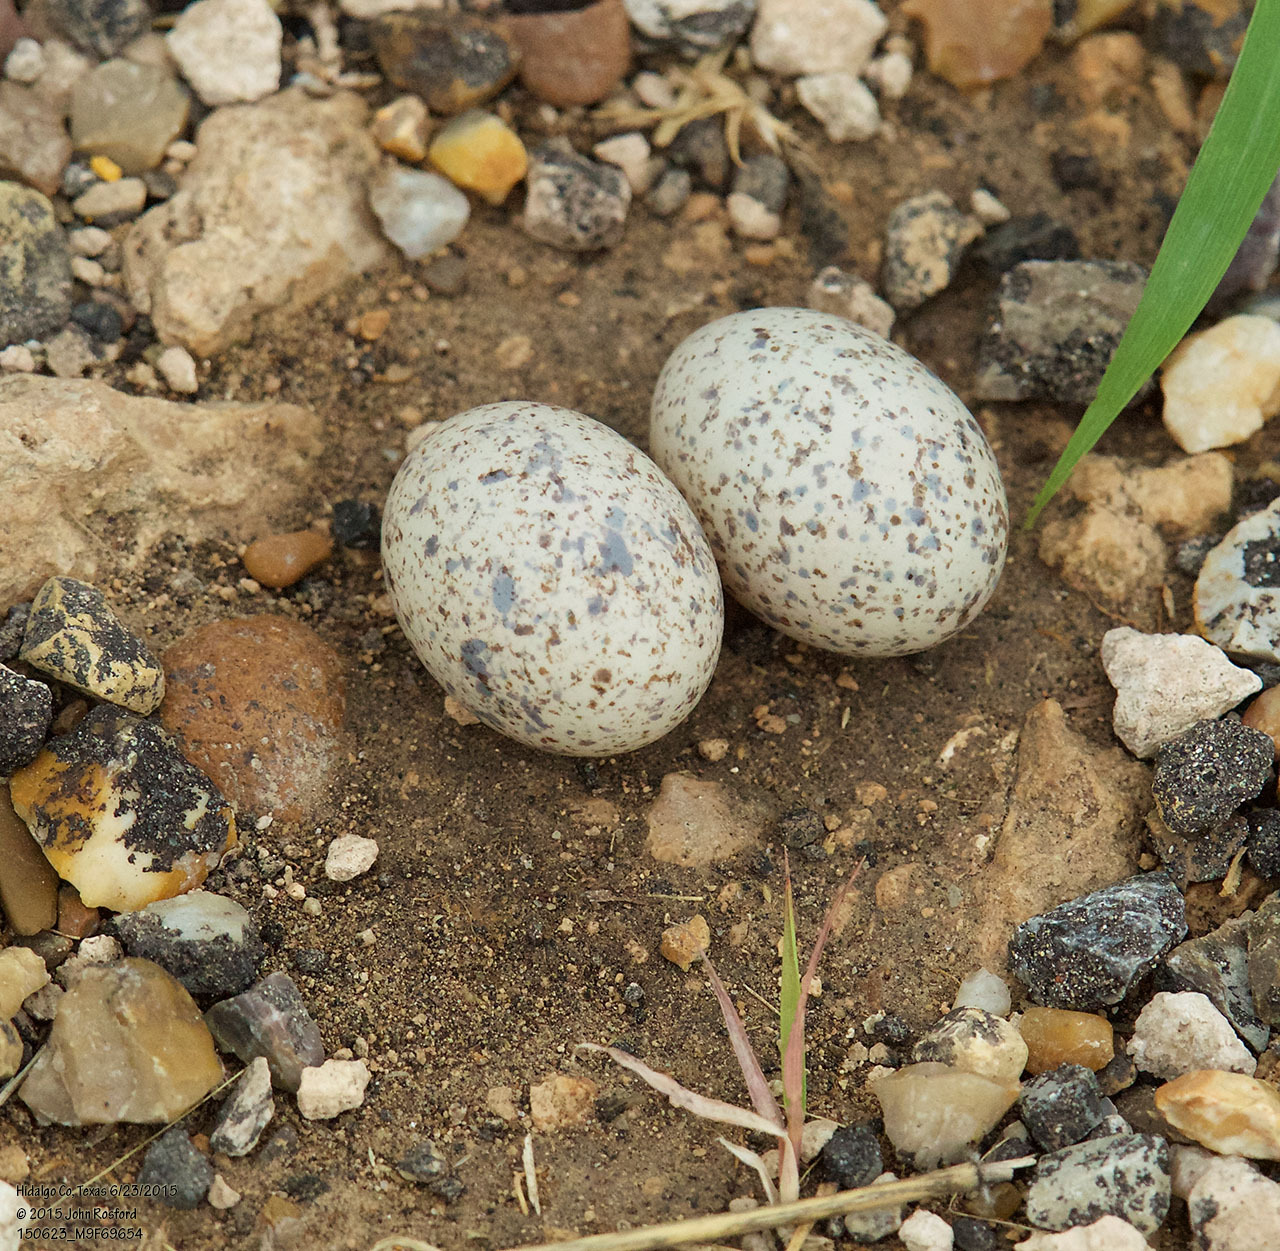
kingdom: Animalia
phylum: Chordata
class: Aves
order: Caprimulgiformes
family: Caprimulgidae
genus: Chordeiles
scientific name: Chordeiles acutipennis
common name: Lesser nighthawk
